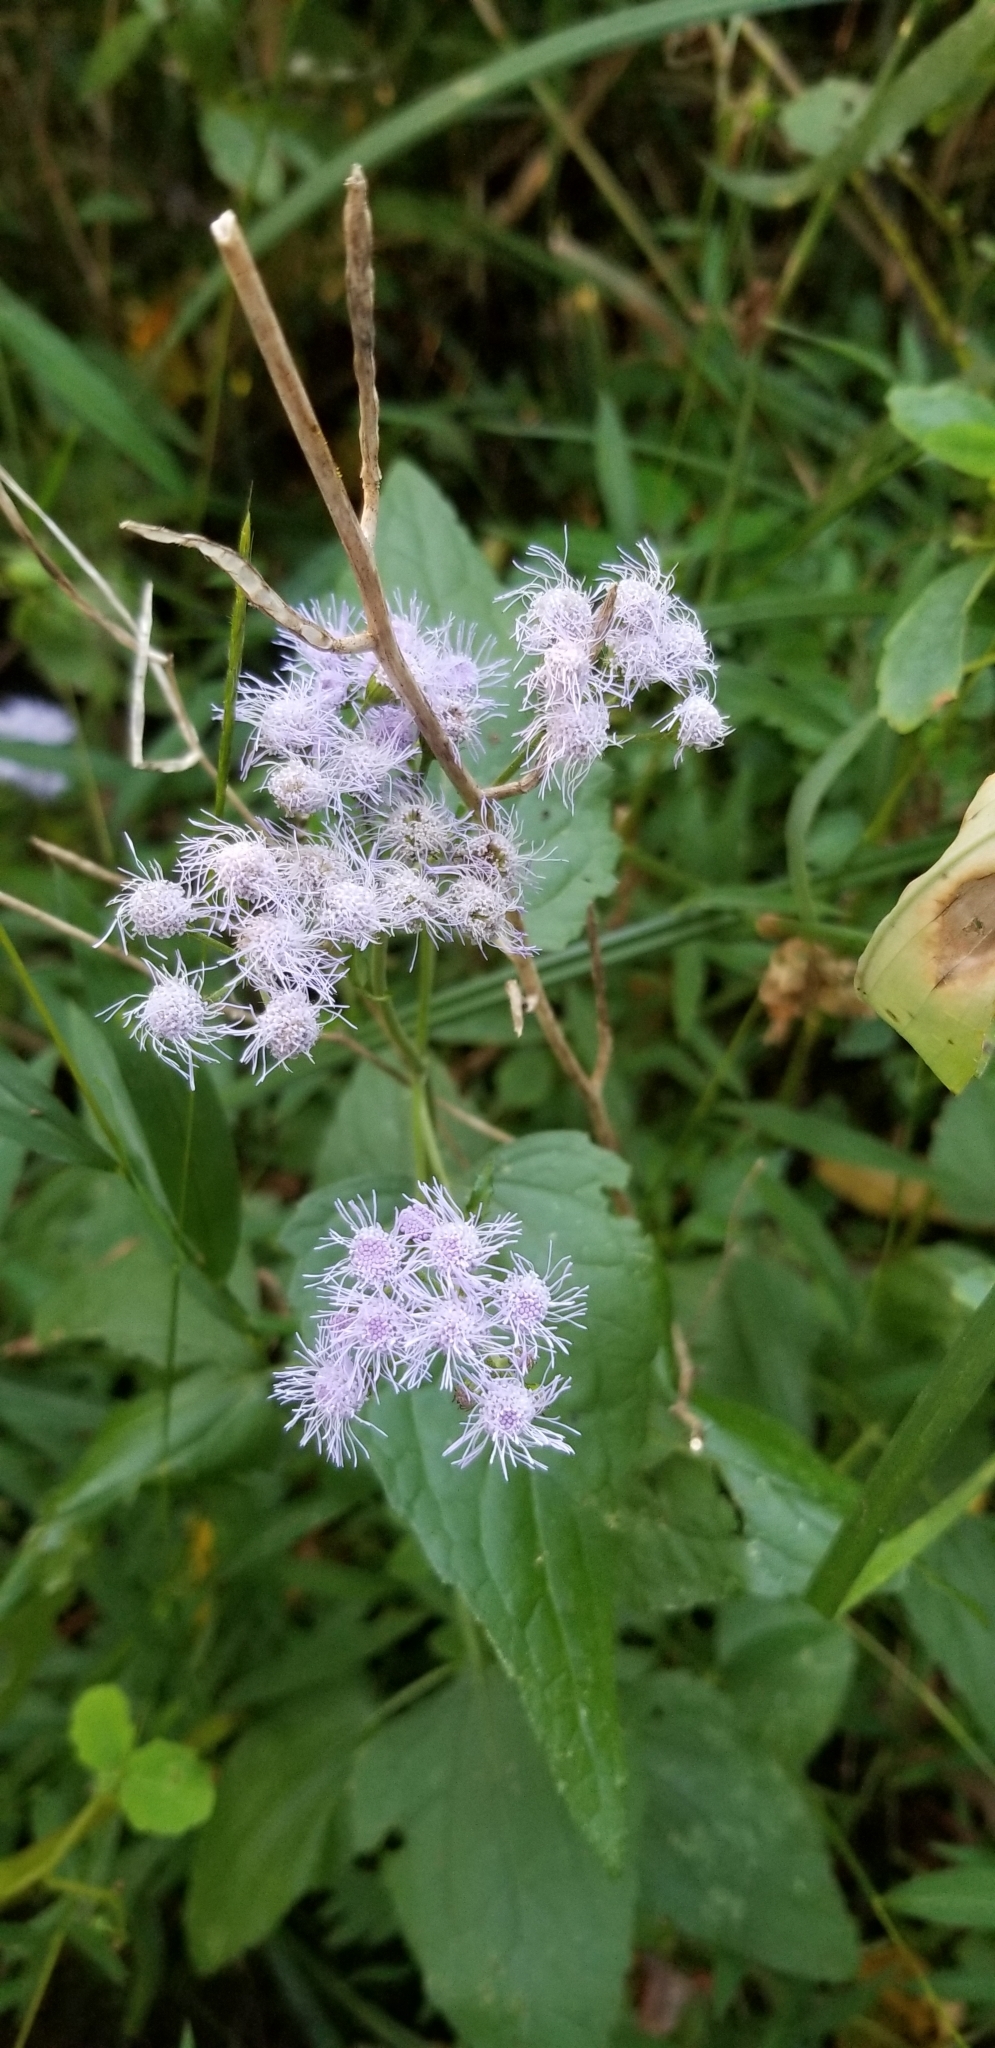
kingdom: Plantae
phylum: Tracheophyta
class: Magnoliopsida
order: Asterales
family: Asteraceae
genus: Conoclinium
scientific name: Conoclinium coelestinum
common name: Blue mistflower
